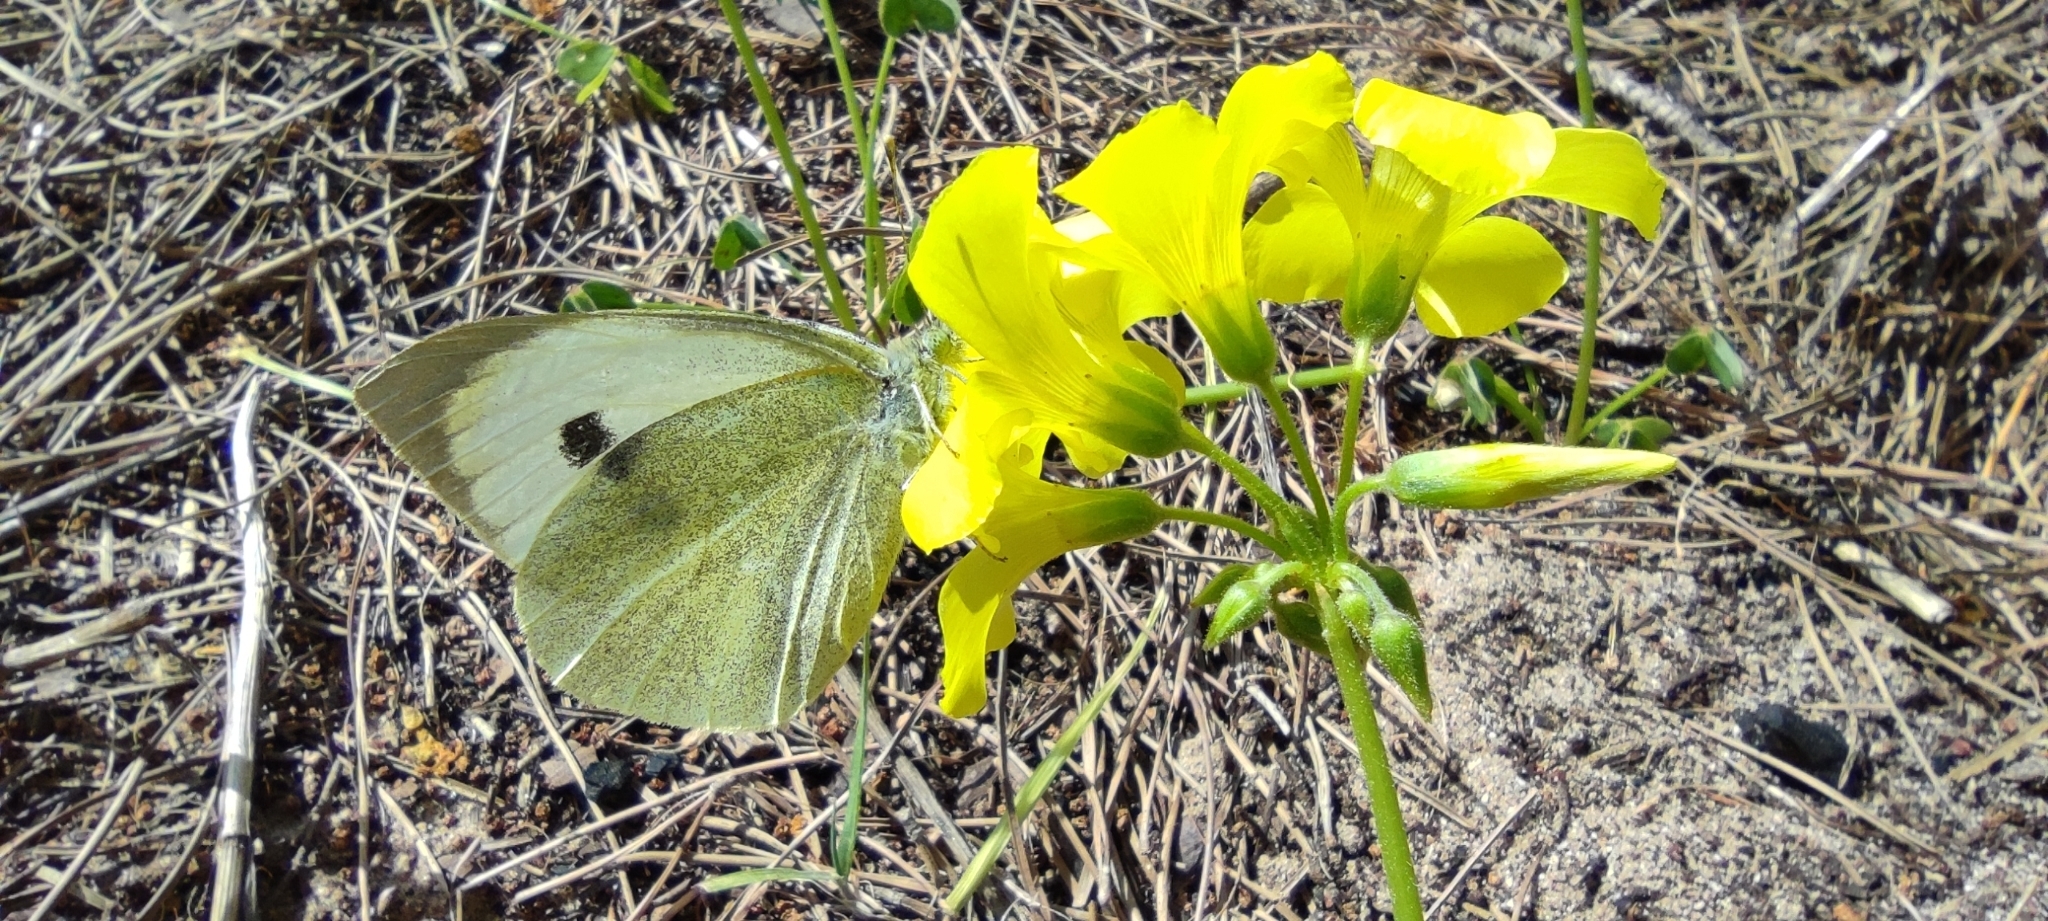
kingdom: Animalia
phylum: Arthropoda
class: Insecta
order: Lepidoptera
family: Pieridae
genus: Pieris
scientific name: Pieris brassicae
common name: Large white
